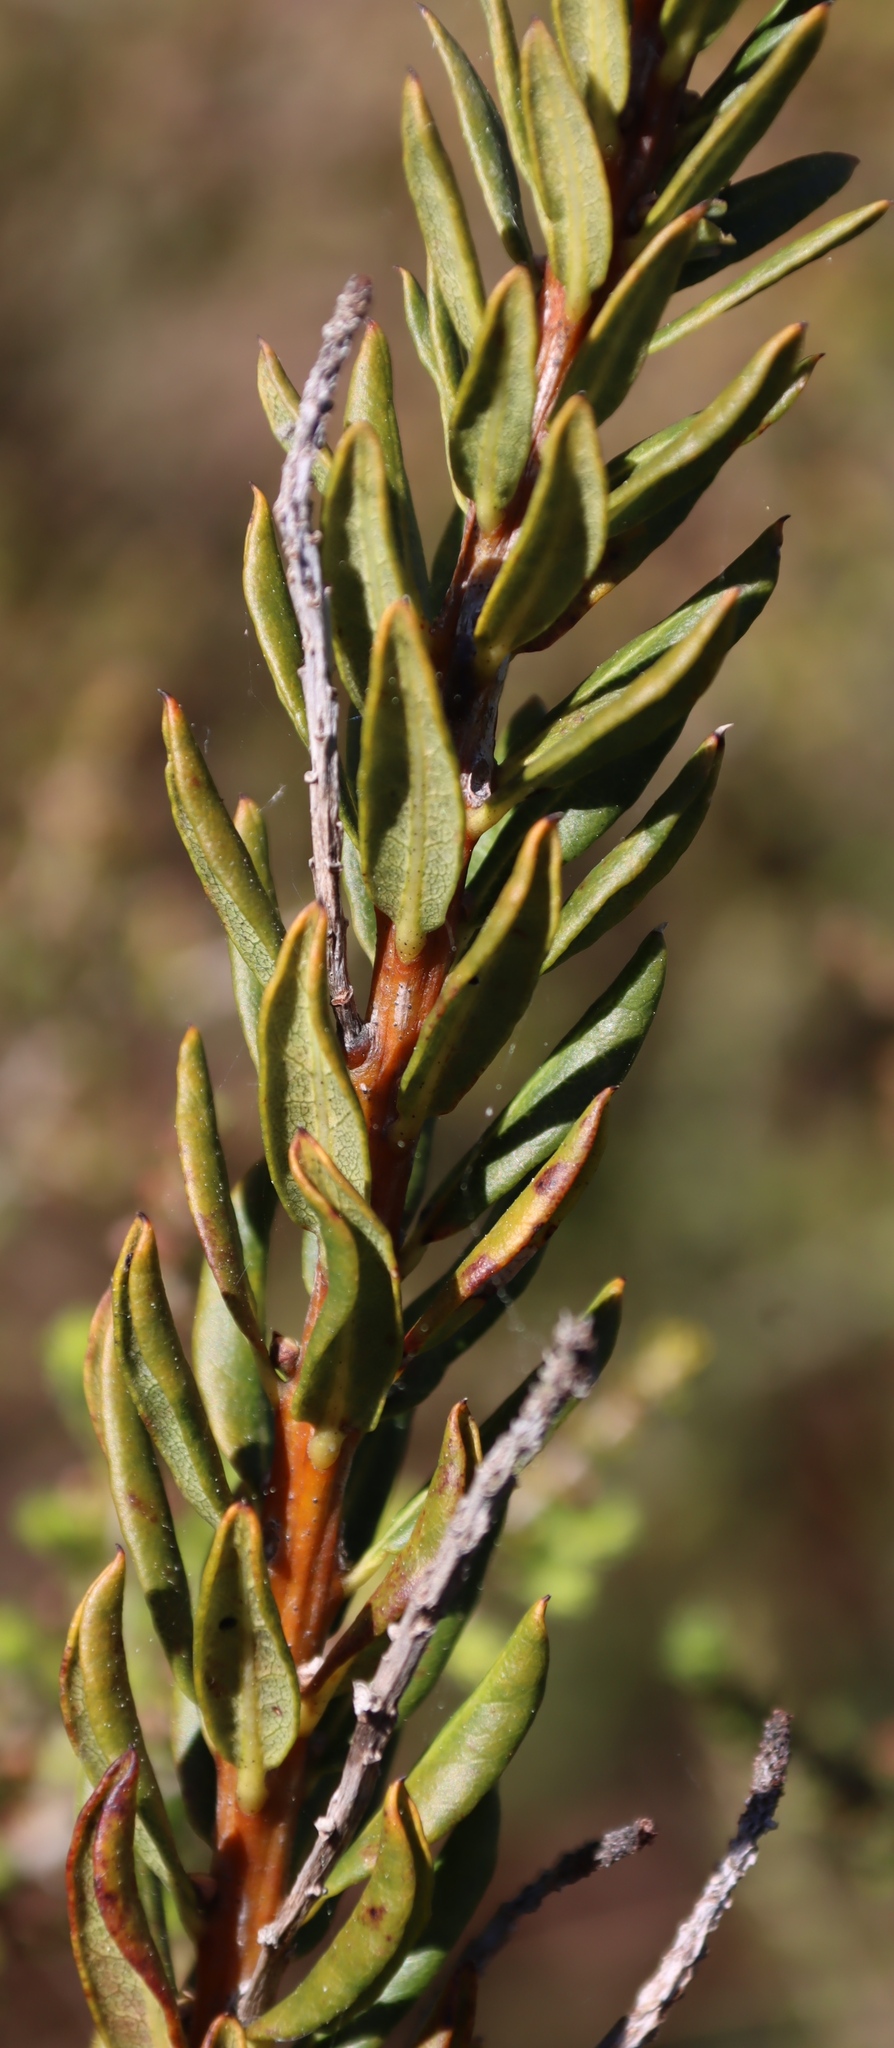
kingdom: Plantae
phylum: Tracheophyta
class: Magnoliopsida
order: Fagales
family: Myricaceae
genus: Morella
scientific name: Morella humilis
